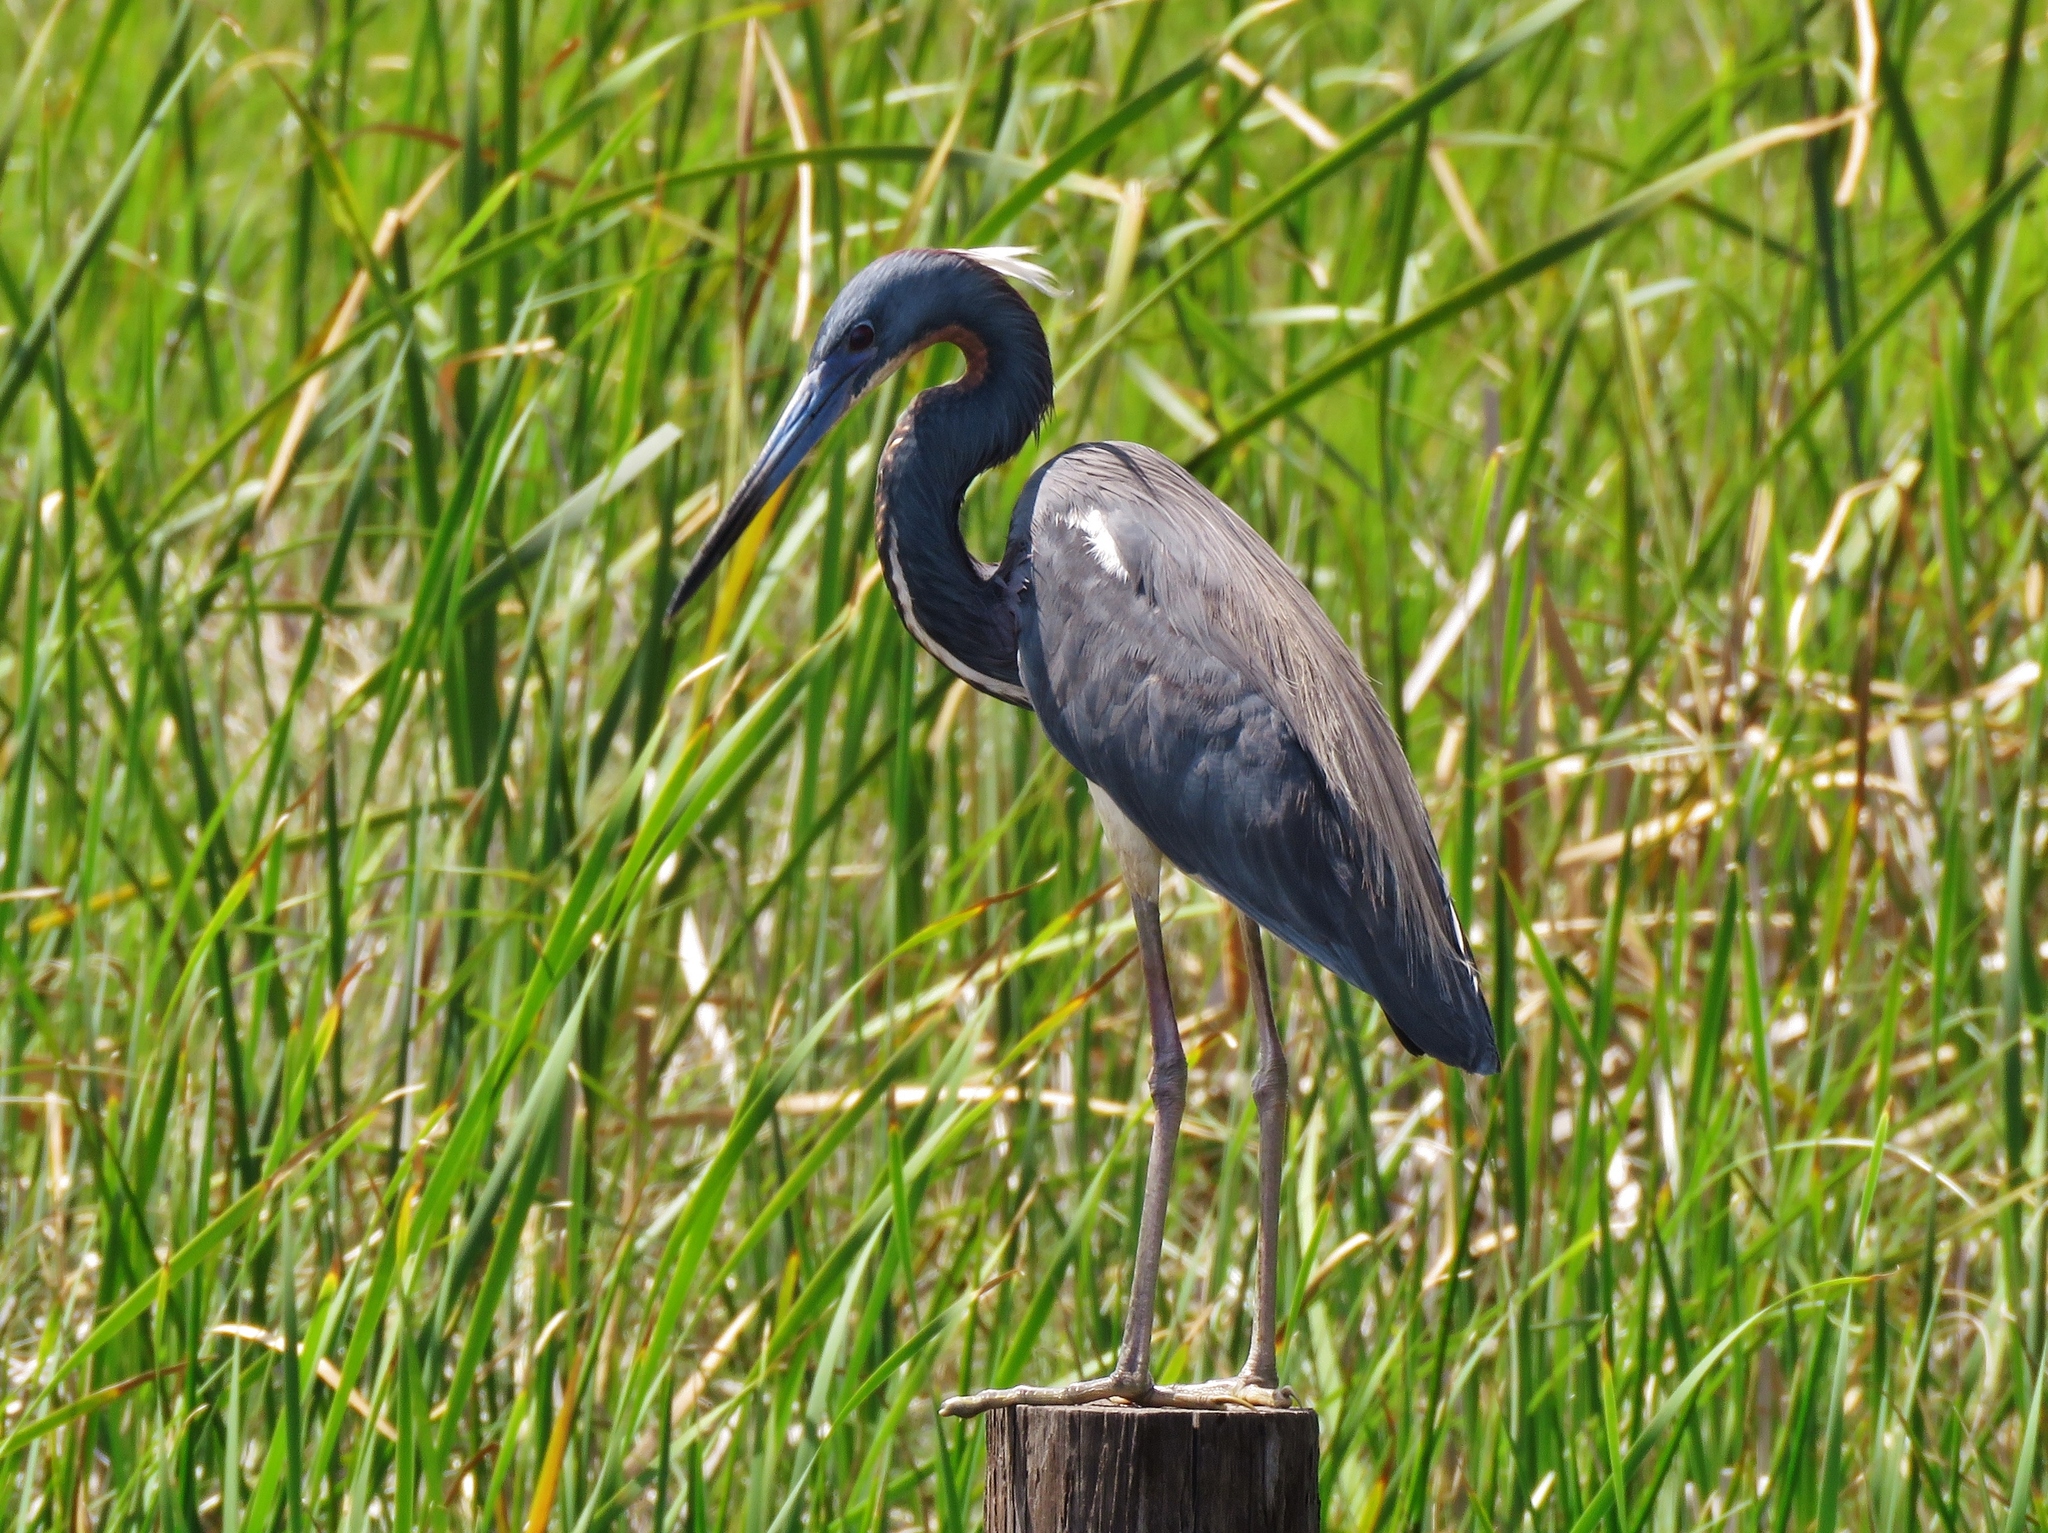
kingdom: Animalia
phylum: Chordata
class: Aves
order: Pelecaniformes
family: Ardeidae
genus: Egretta
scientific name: Egretta tricolor
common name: Tricolored heron
